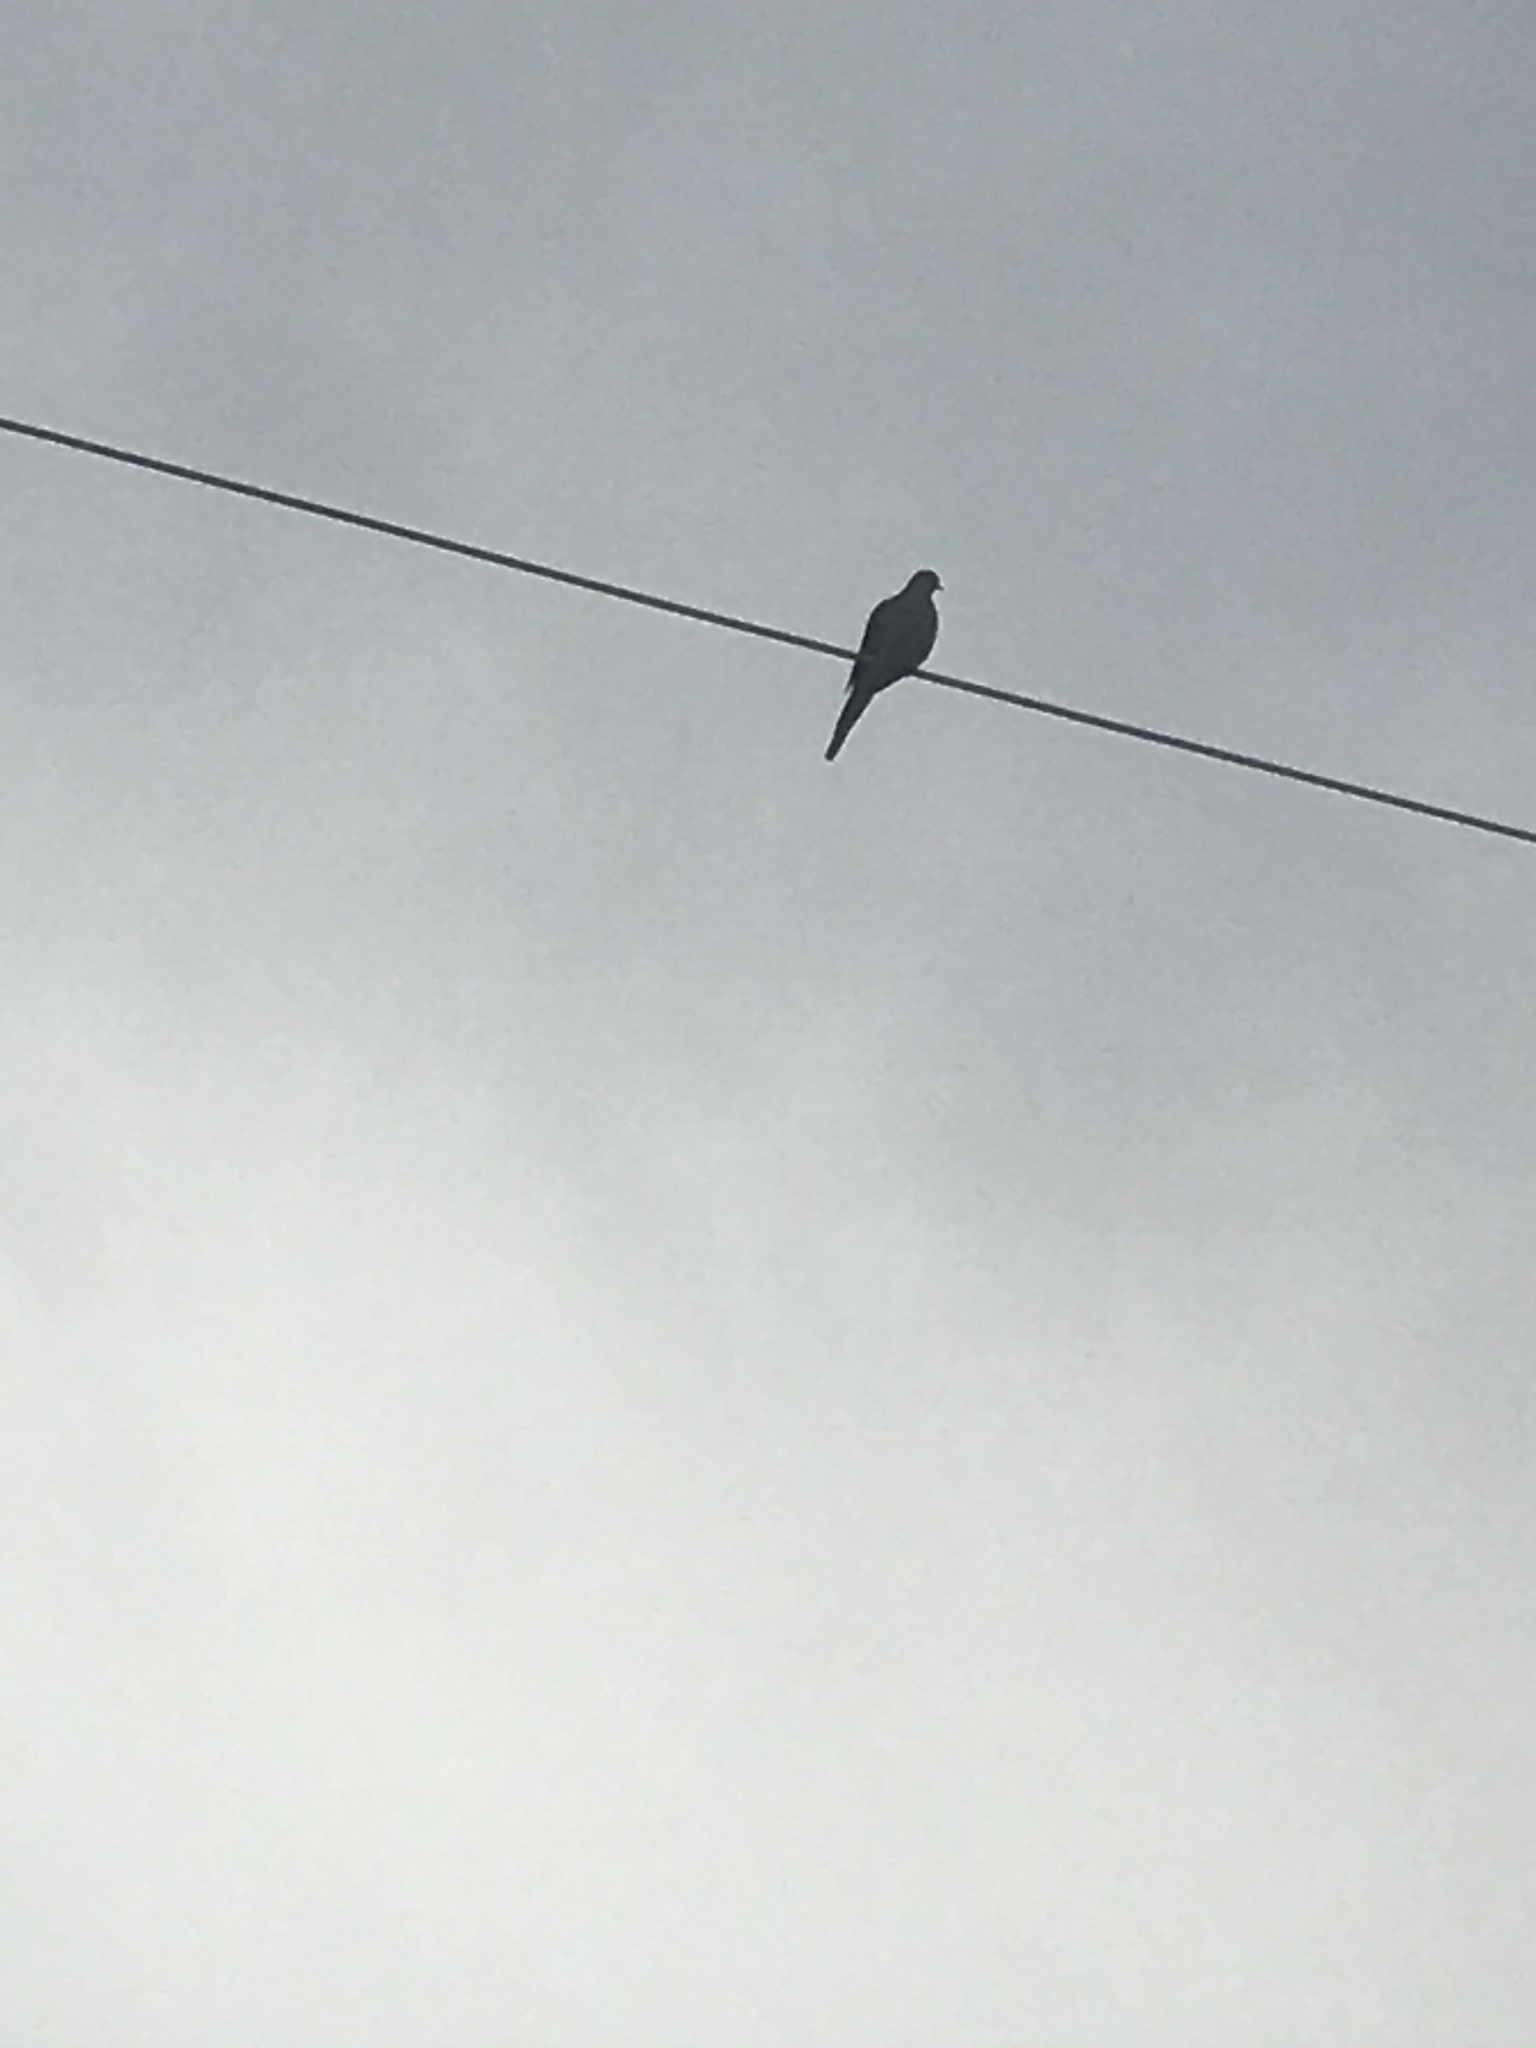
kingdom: Animalia
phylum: Chordata
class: Aves
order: Columbiformes
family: Columbidae
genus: Zenaida
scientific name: Zenaida macroura
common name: Mourning dove
